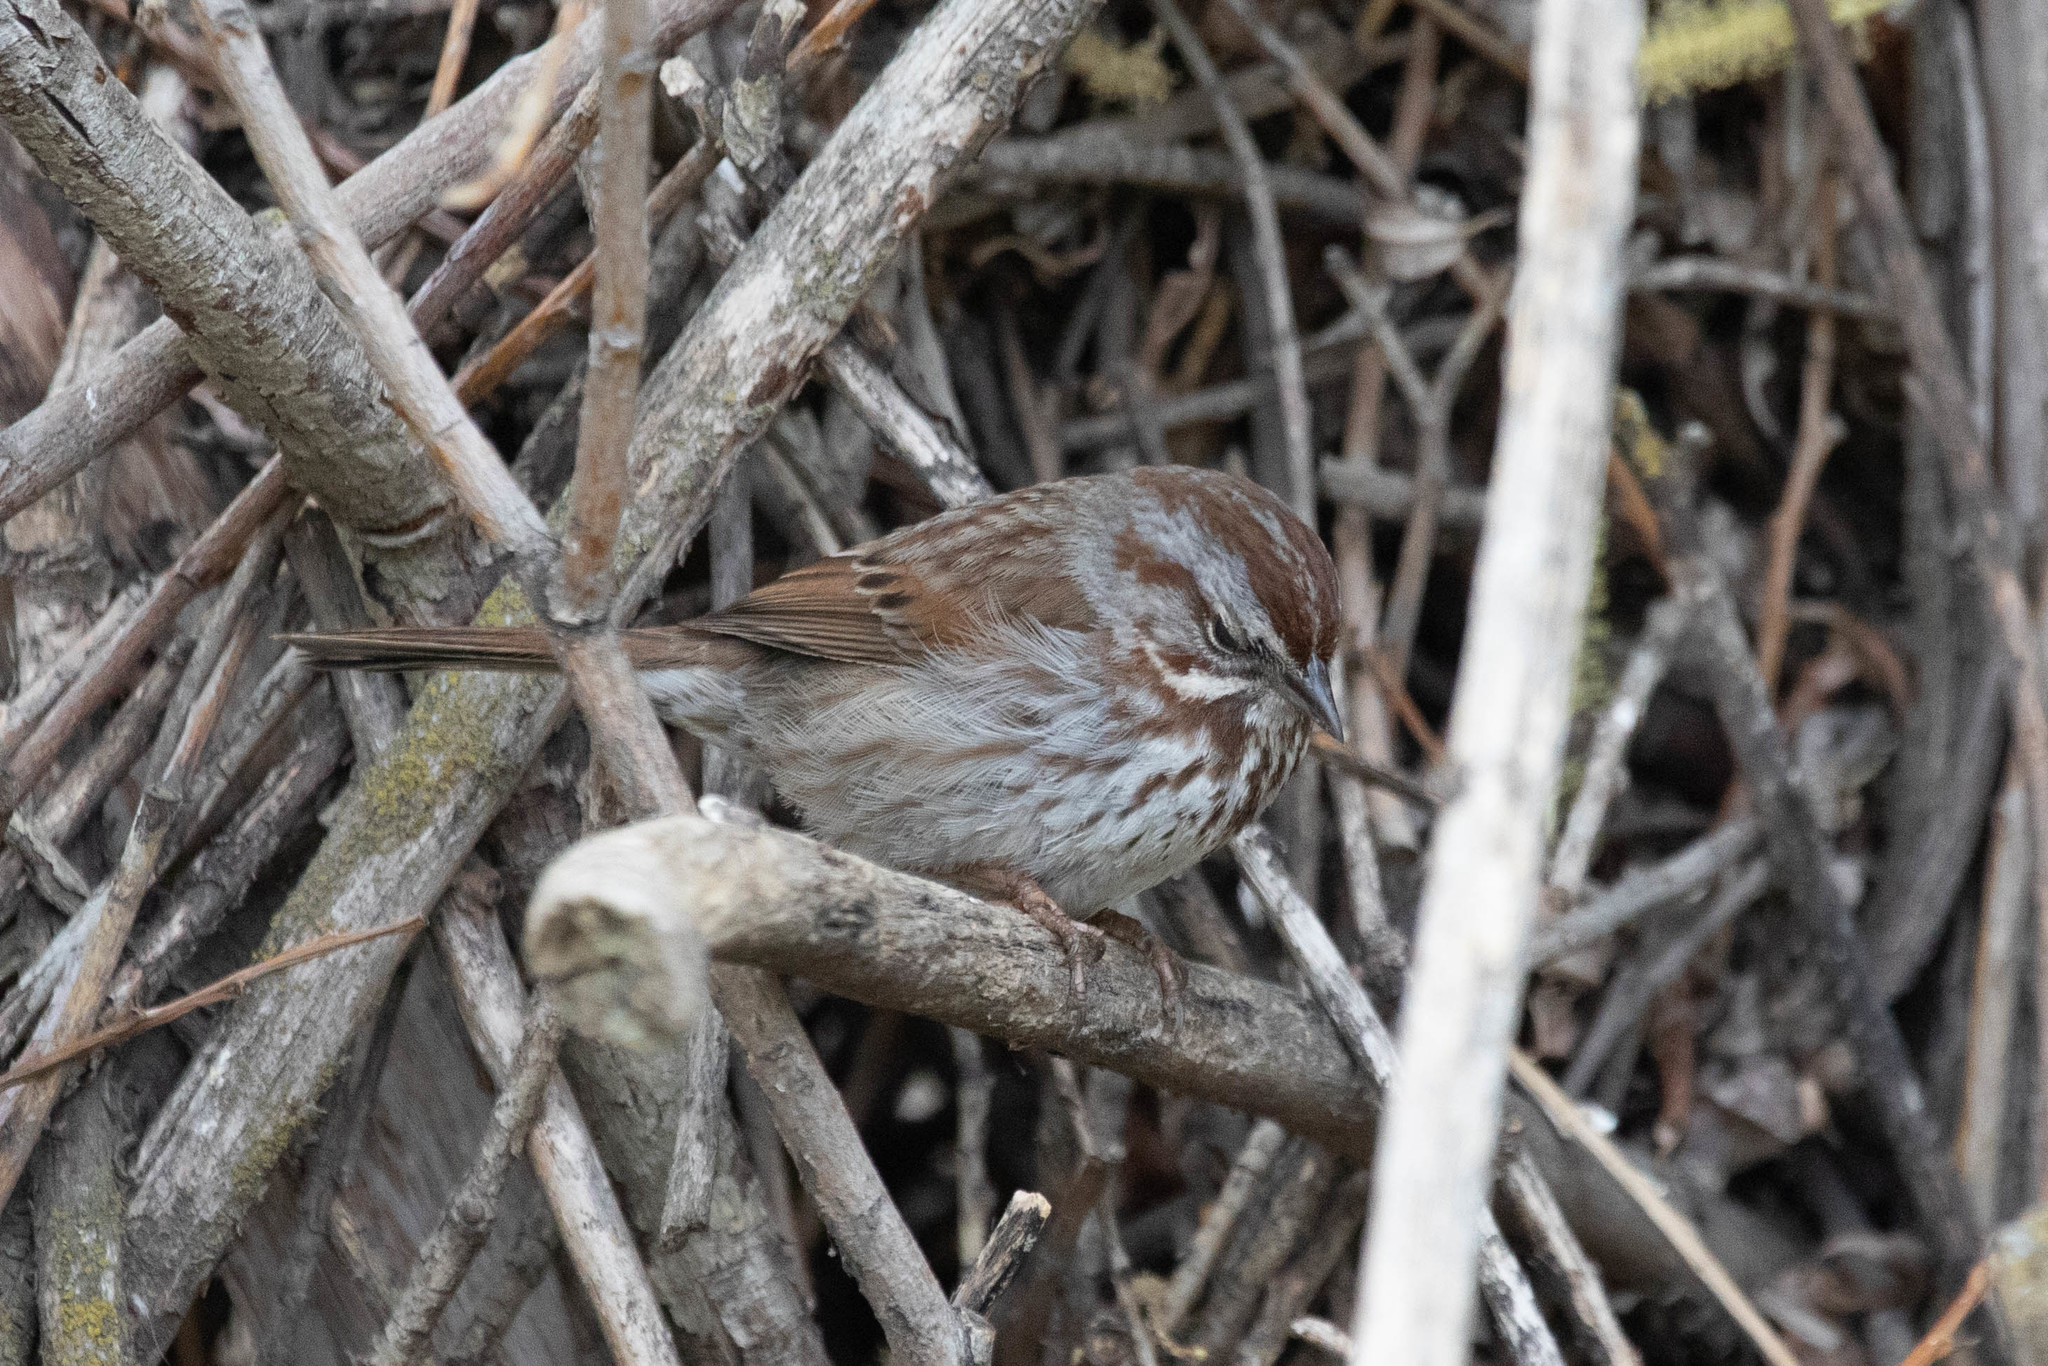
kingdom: Animalia
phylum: Chordata
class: Aves
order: Passeriformes
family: Passerellidae
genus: Melospiza
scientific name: Melospiza melodia
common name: Song sparrow
